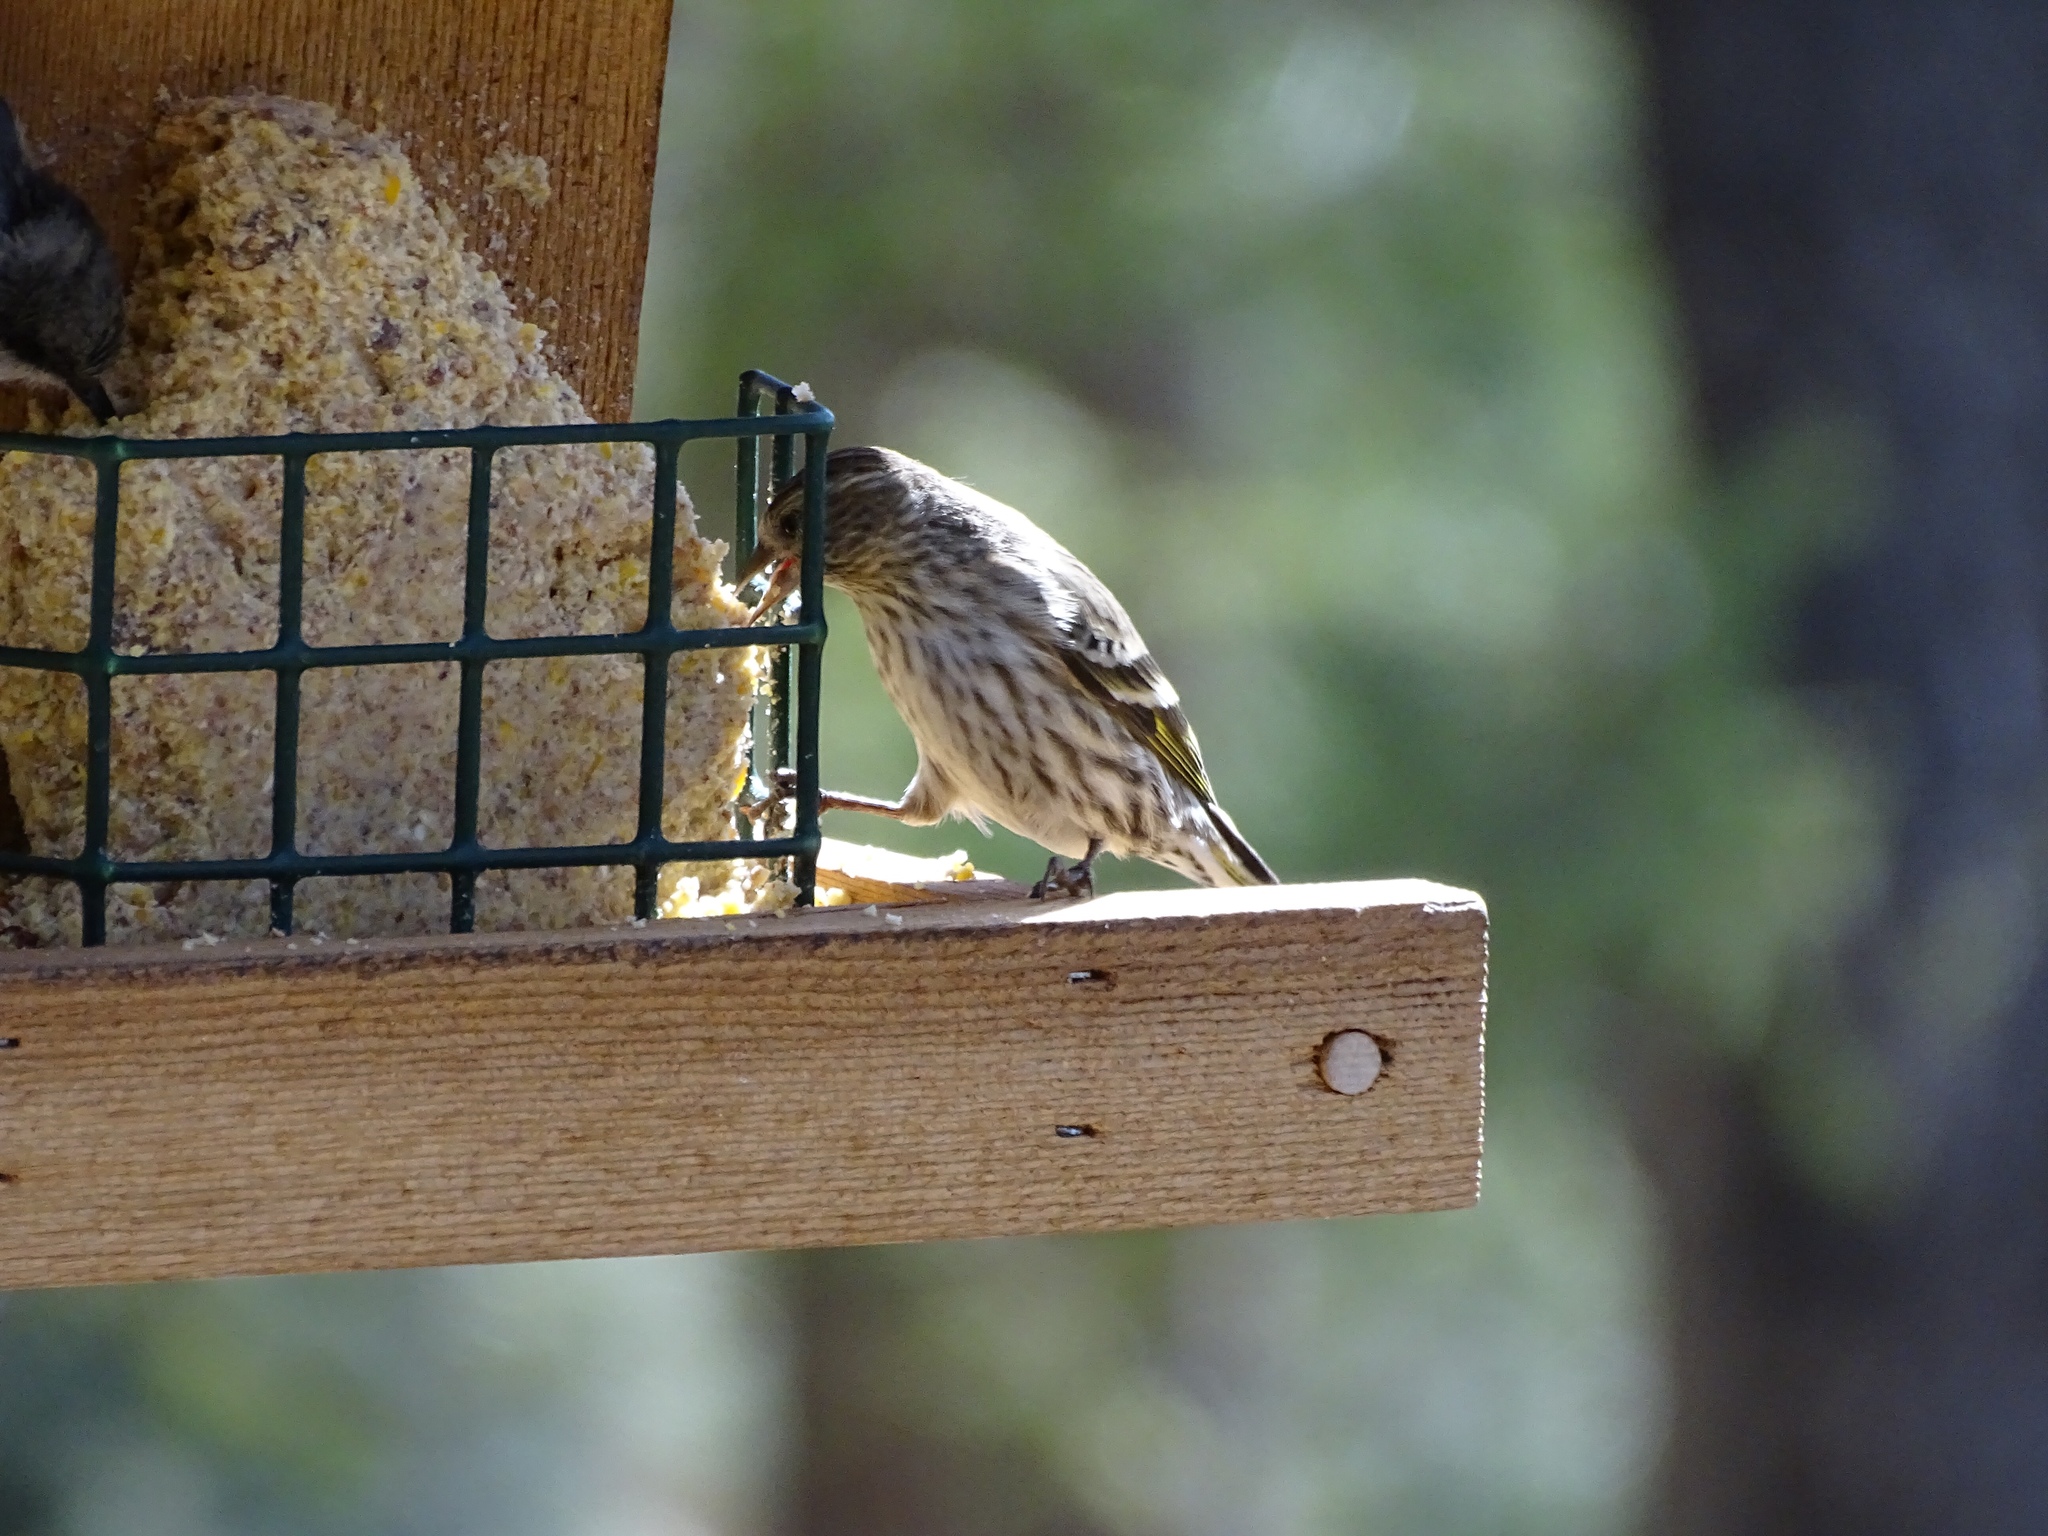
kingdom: Animalia
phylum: Chordata
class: Aves
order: Passeriformes
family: Fringillidae
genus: Spinus
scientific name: Spinus pinus
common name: Pine siskin
